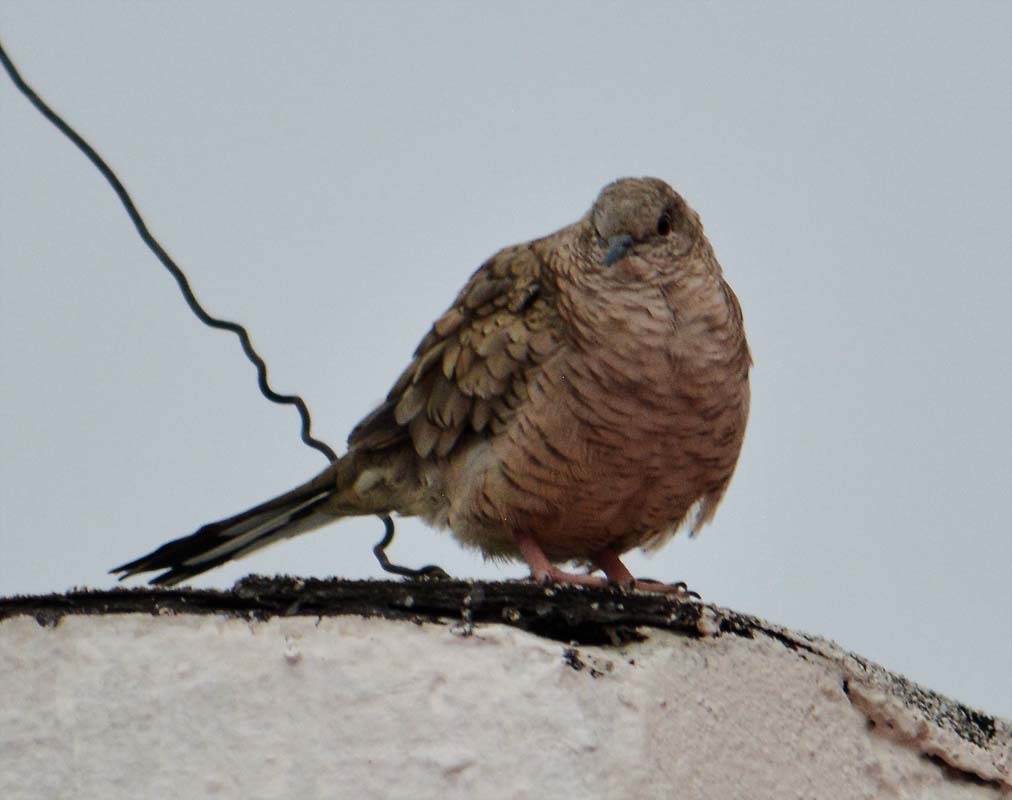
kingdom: Animalia
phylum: Chordata
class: Aves
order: Columbiformes
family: Columbidae
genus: Columbina
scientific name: Columbina inca
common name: Inca dove
